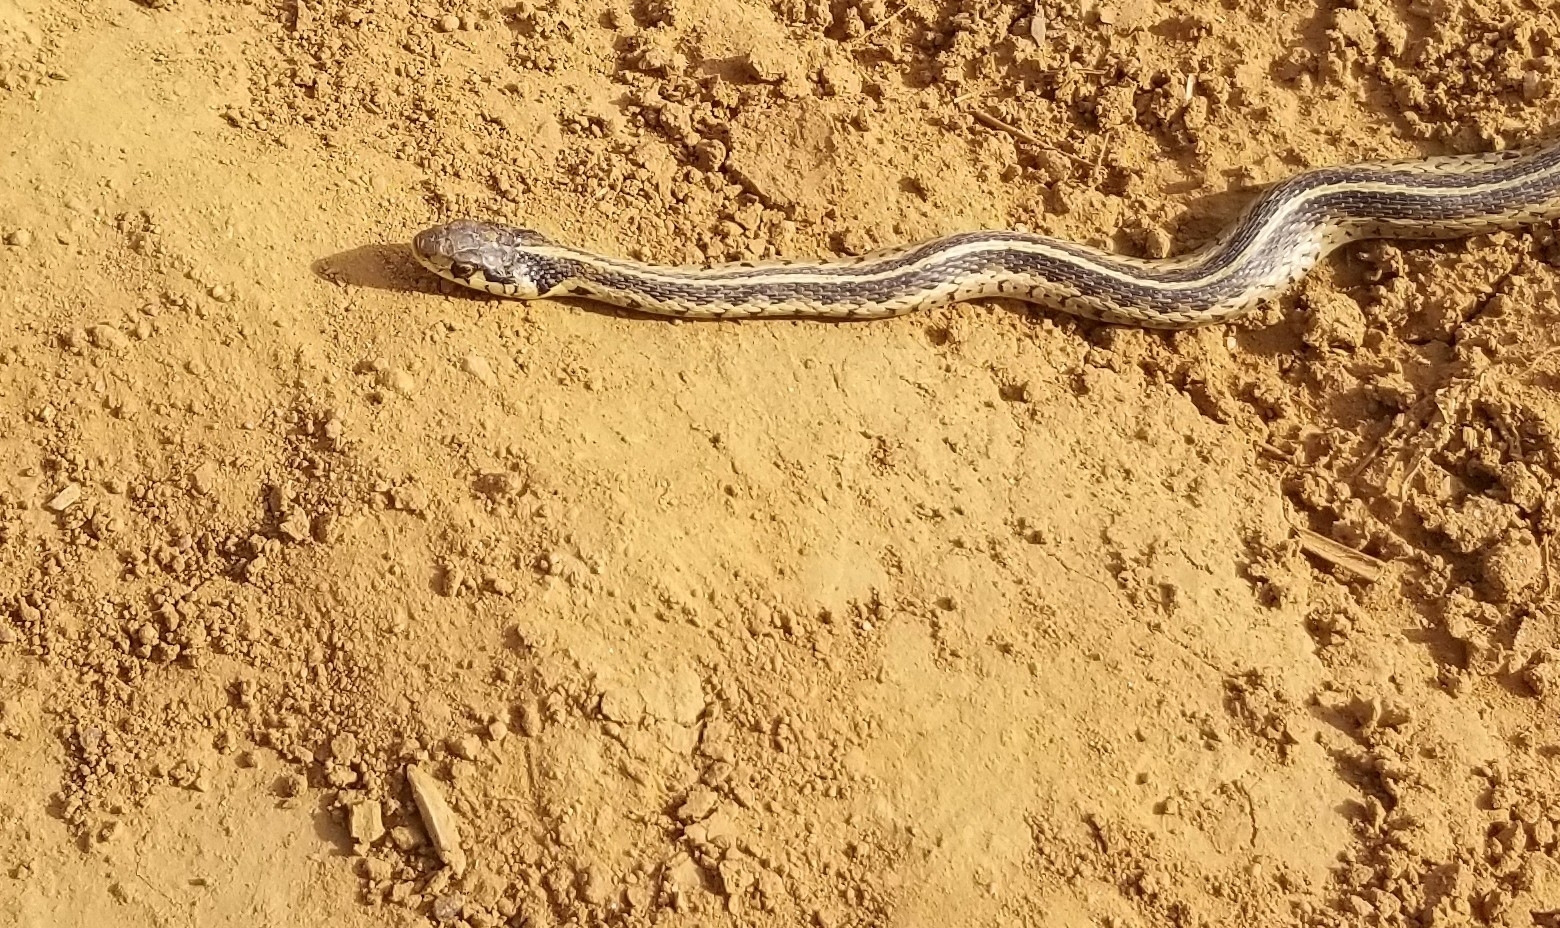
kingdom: Animalia
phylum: Chordata
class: Squamata
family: Colubridae
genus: Thamnophis
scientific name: Thamnophis sirtalis
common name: Common garter snake
